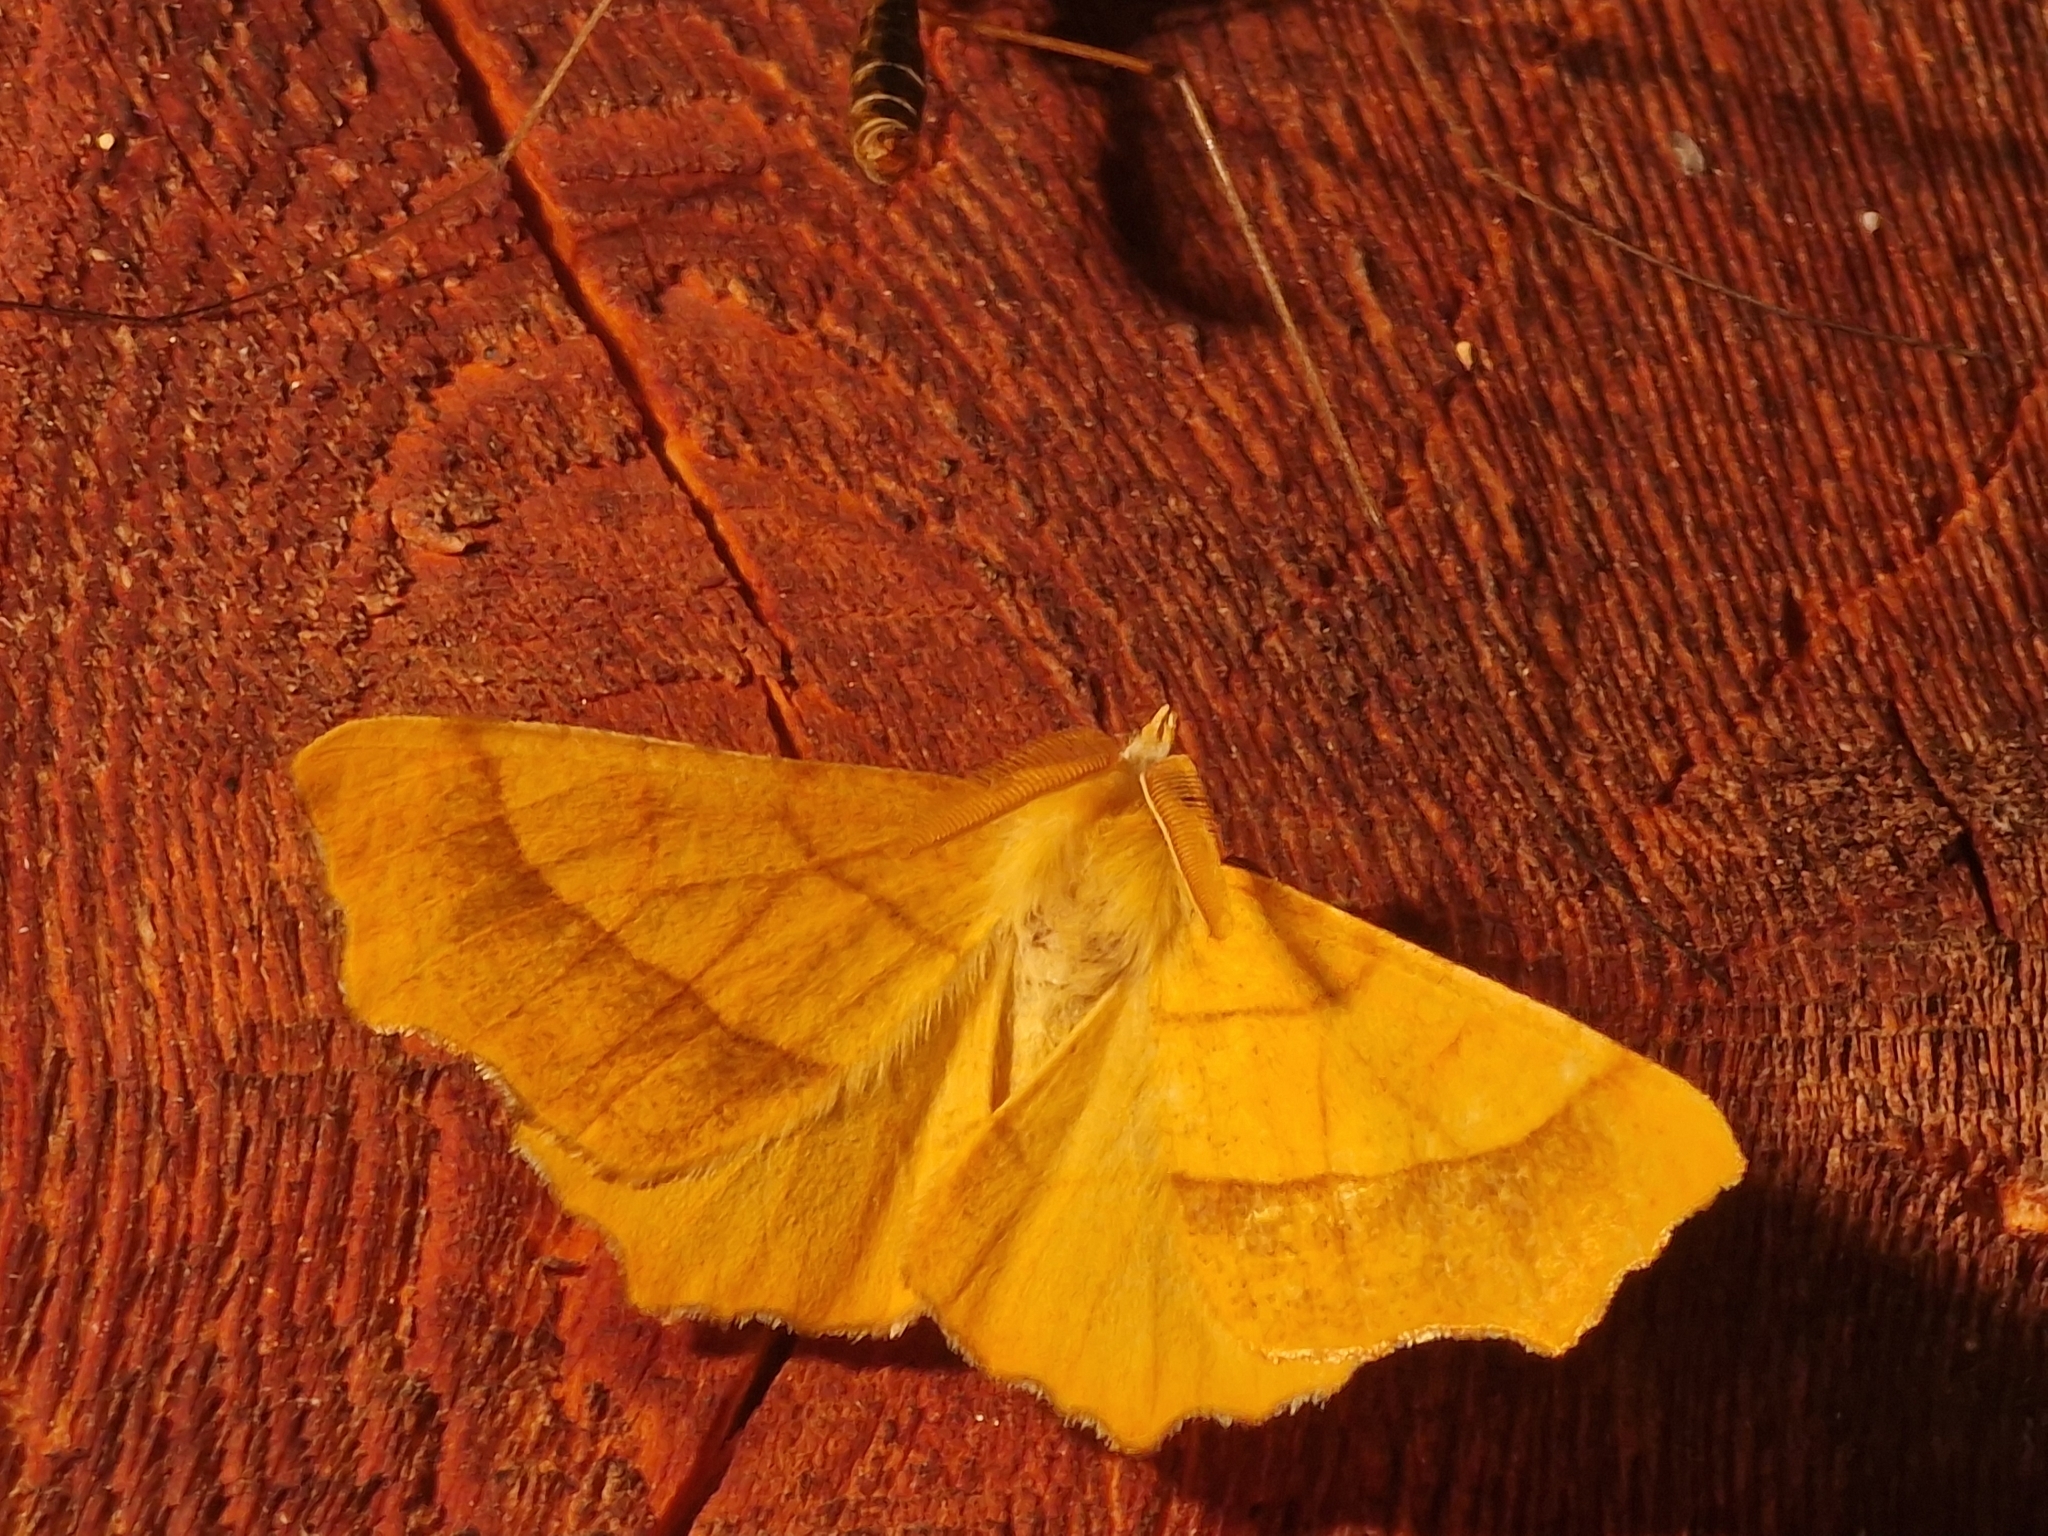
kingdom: Animalia
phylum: Arthropoda
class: Insecta
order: Lepidoptera
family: Geometridae
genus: Ennomos
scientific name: Ennomos quercinaria
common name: August thorn
